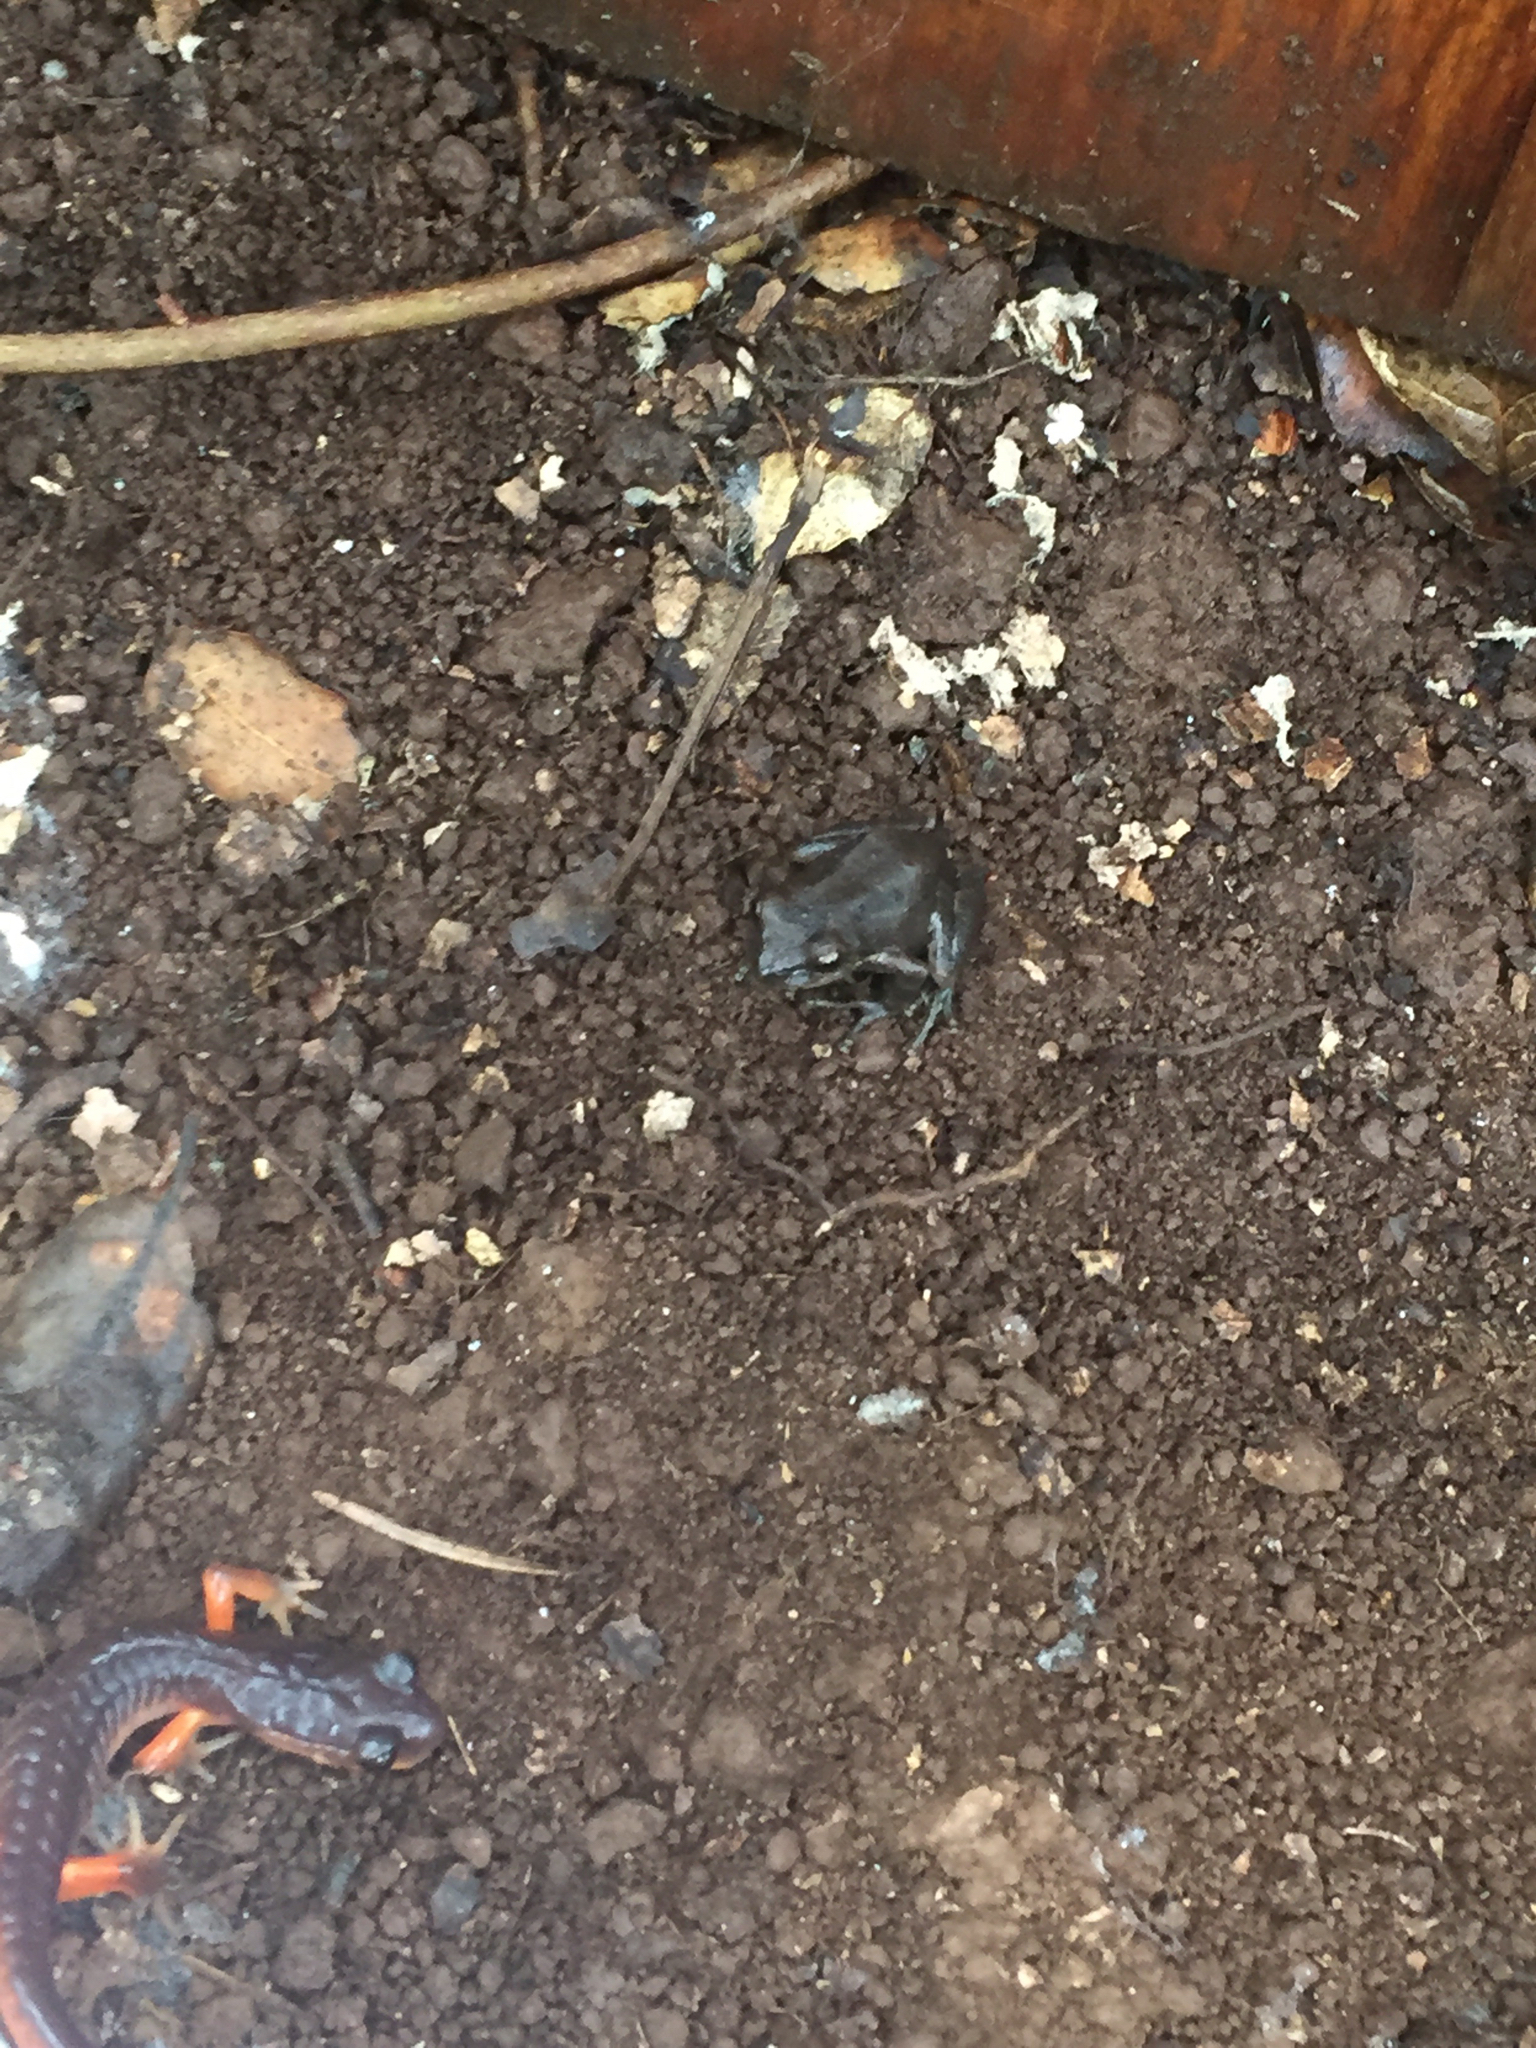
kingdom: Animalia
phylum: Chordata
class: Amphibia
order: Anura
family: Hylidae
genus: Pseudacris
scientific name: Pseudacris regilla
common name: Pacific chorus frog
